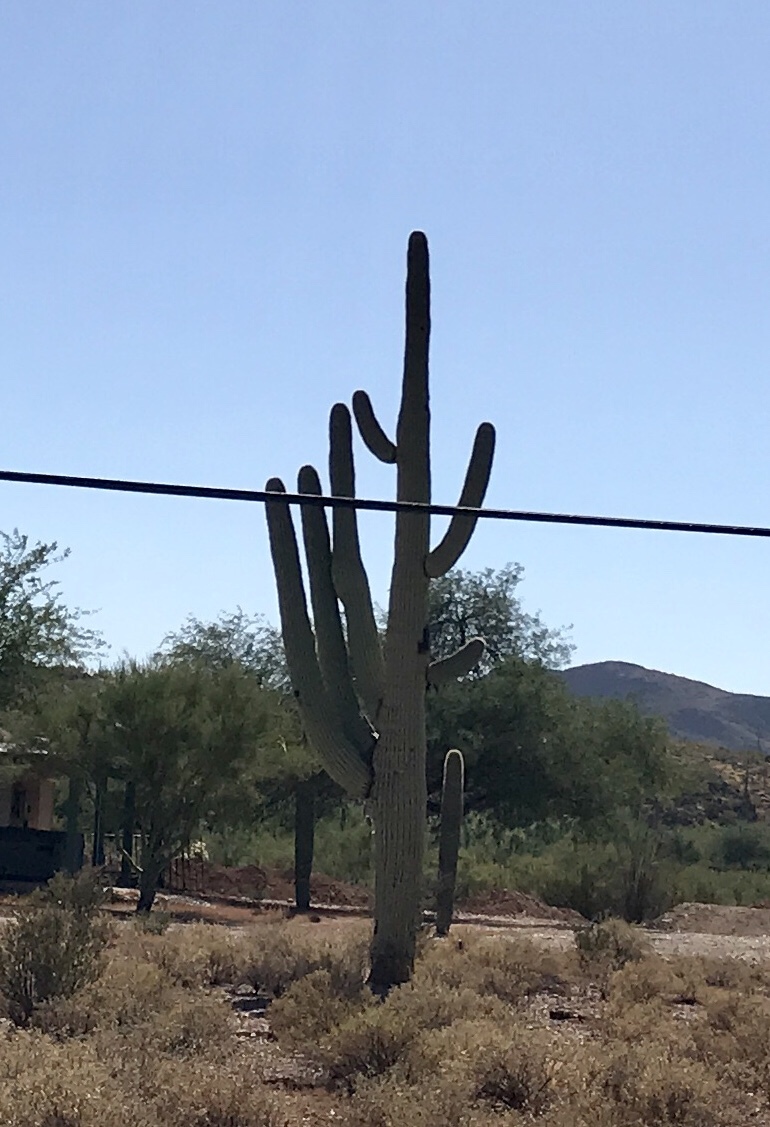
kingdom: Plantae
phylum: Tracheophyta
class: Magnoliopsida
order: Caryophyllales
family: Cactaceae
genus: Carnegiea
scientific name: Carnegiea gigantea
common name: Saguaro
